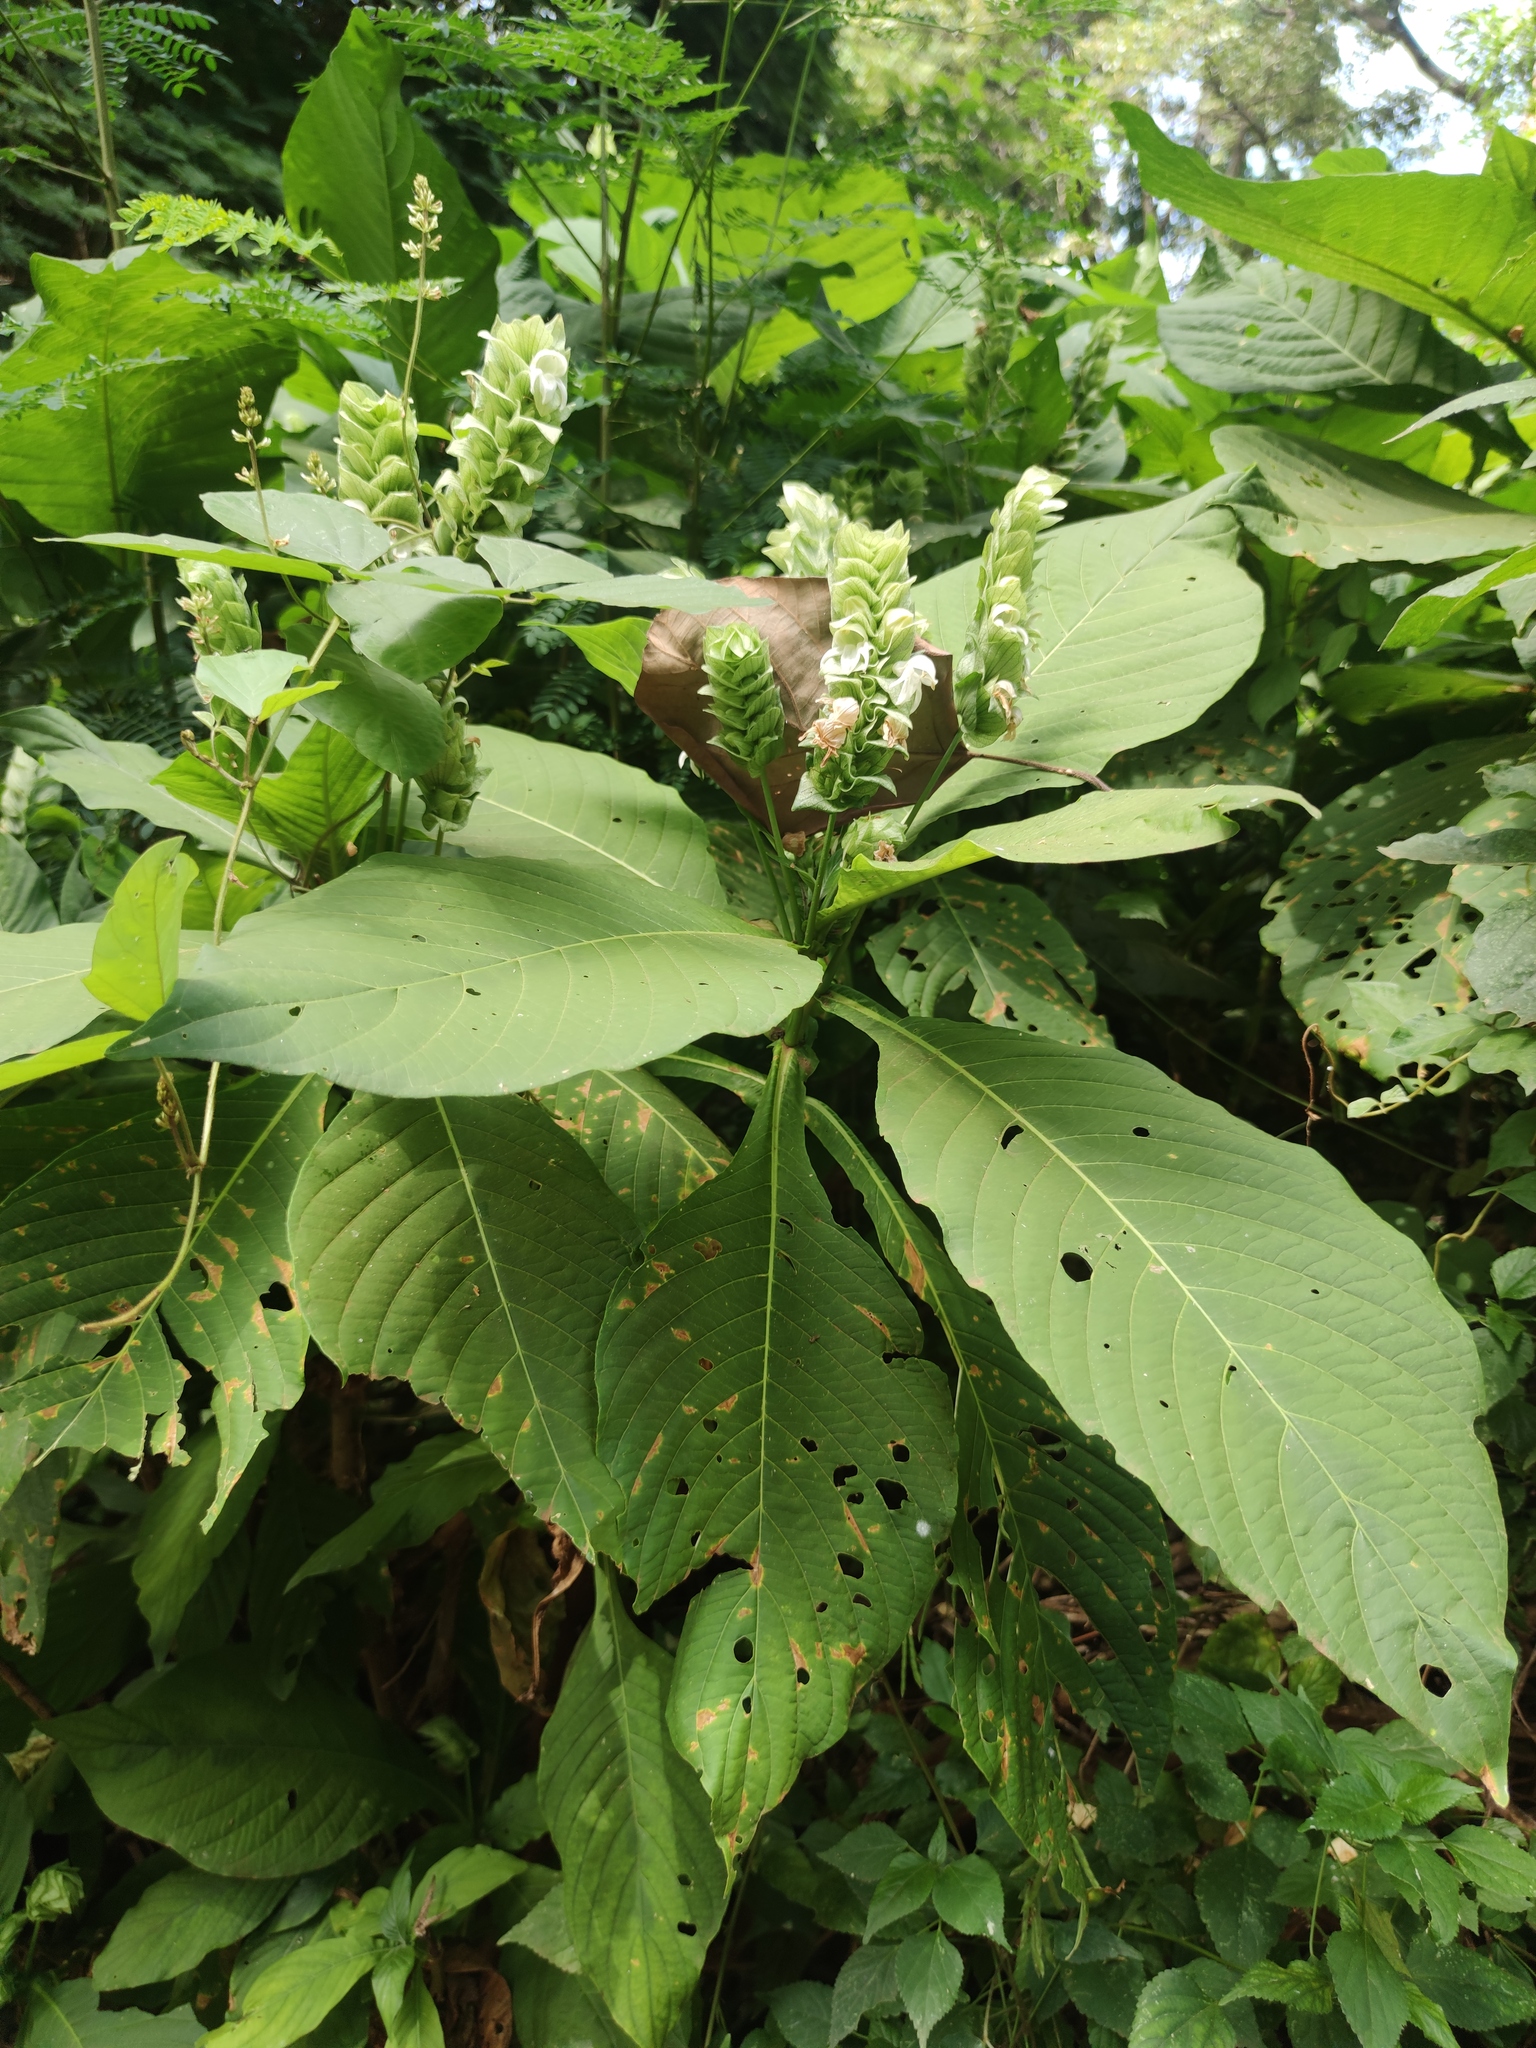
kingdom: Plantae
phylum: Tracheophyta
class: Magnoliopsida
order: Lamiales
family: Acanthaceae
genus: Justicia
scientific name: Justicia betonica
